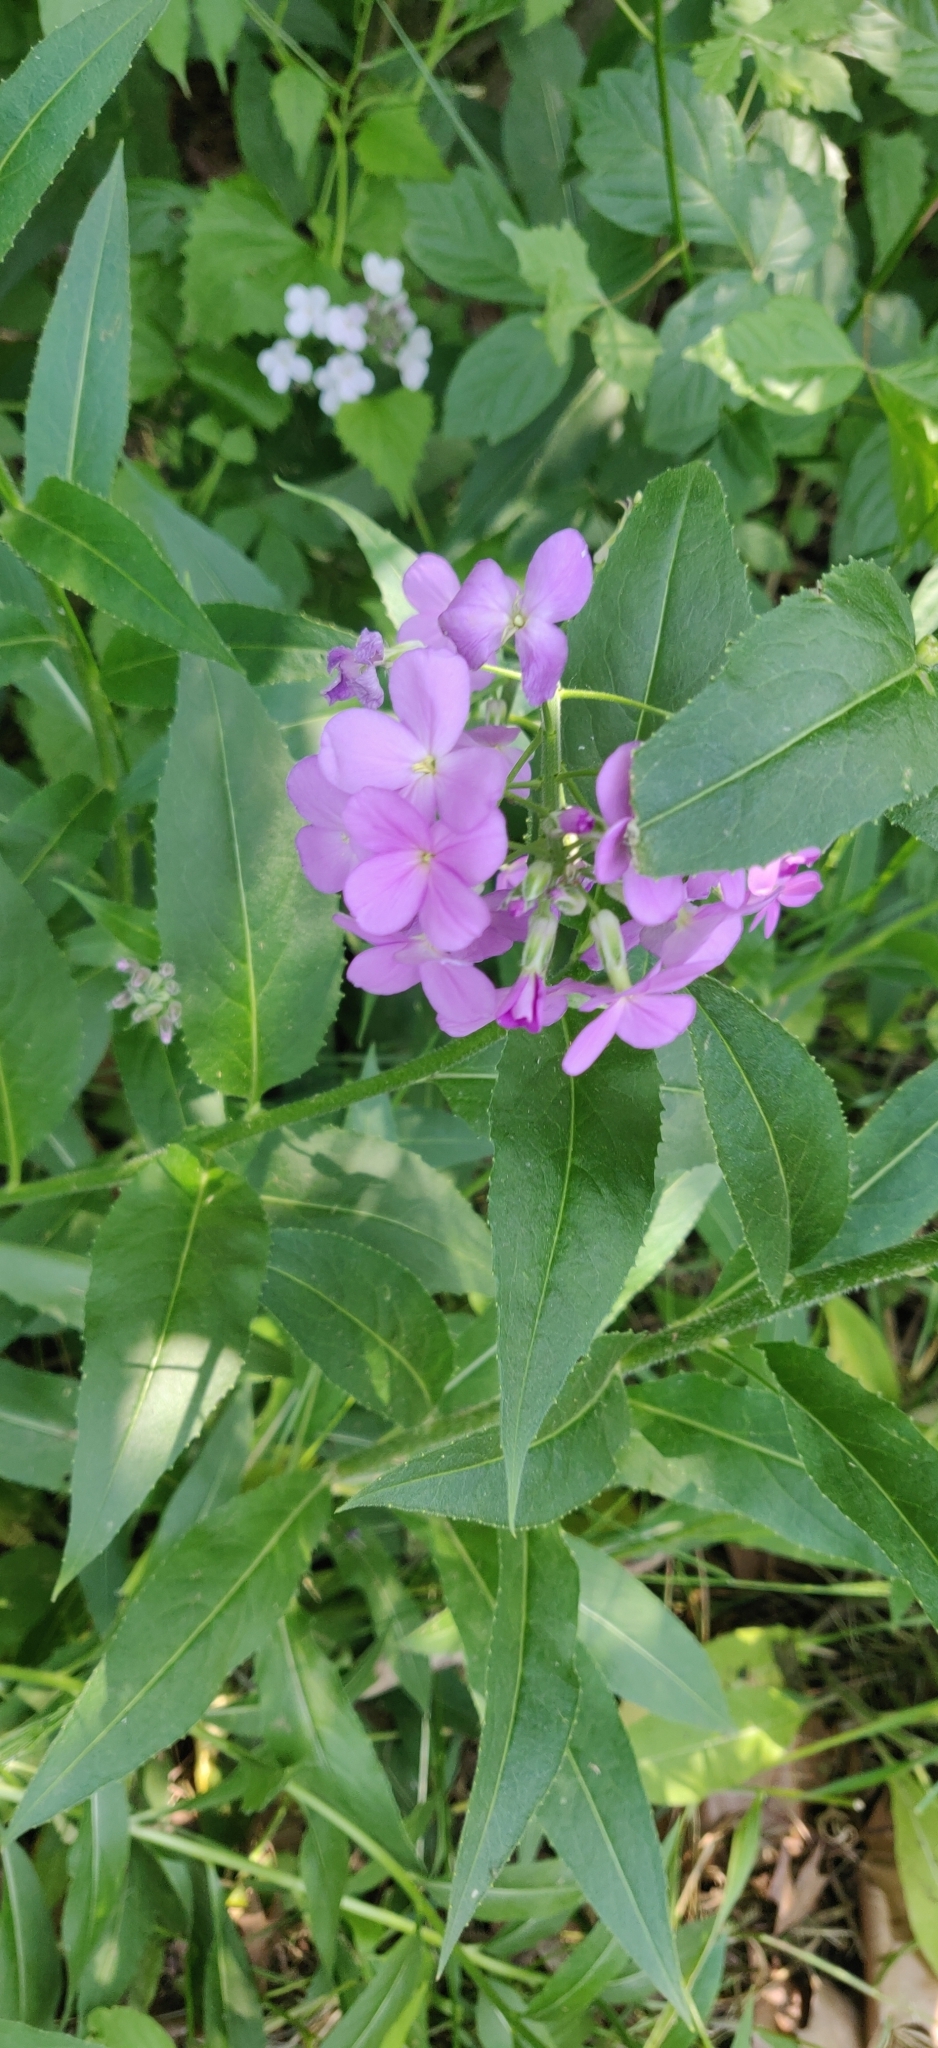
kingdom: Plantae
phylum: Tracheophyta
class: Magnoliopsida
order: Brassicales
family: Brassicaceae
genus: Hesperis
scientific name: Hesperis matronalis
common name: Dame's-violet
